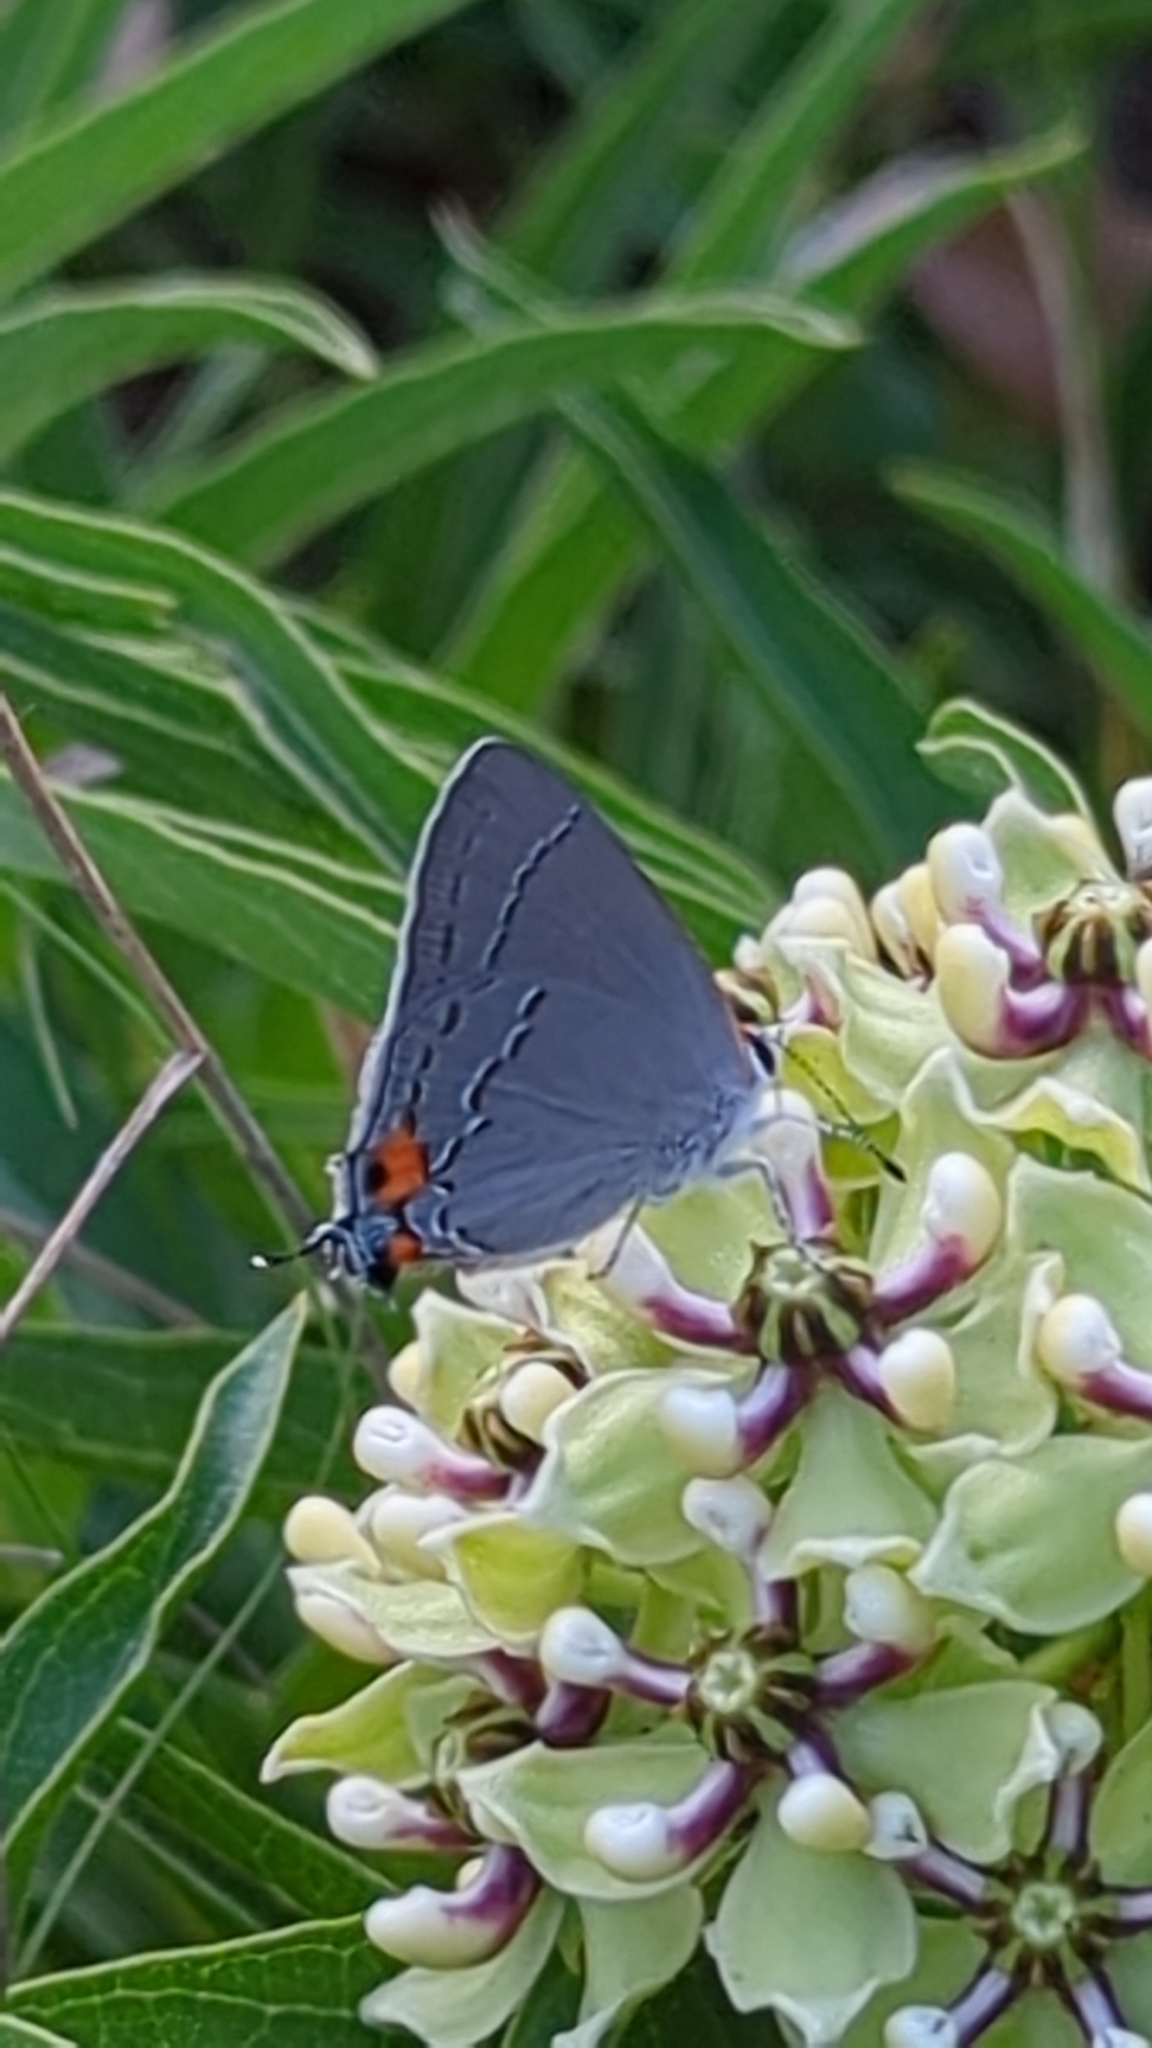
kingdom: Animalia
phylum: Arthropoda
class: Insecta
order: Lepidoptera
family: Lycaenidae
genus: Strymon
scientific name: Strymon melinus
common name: Gray hairstreak
